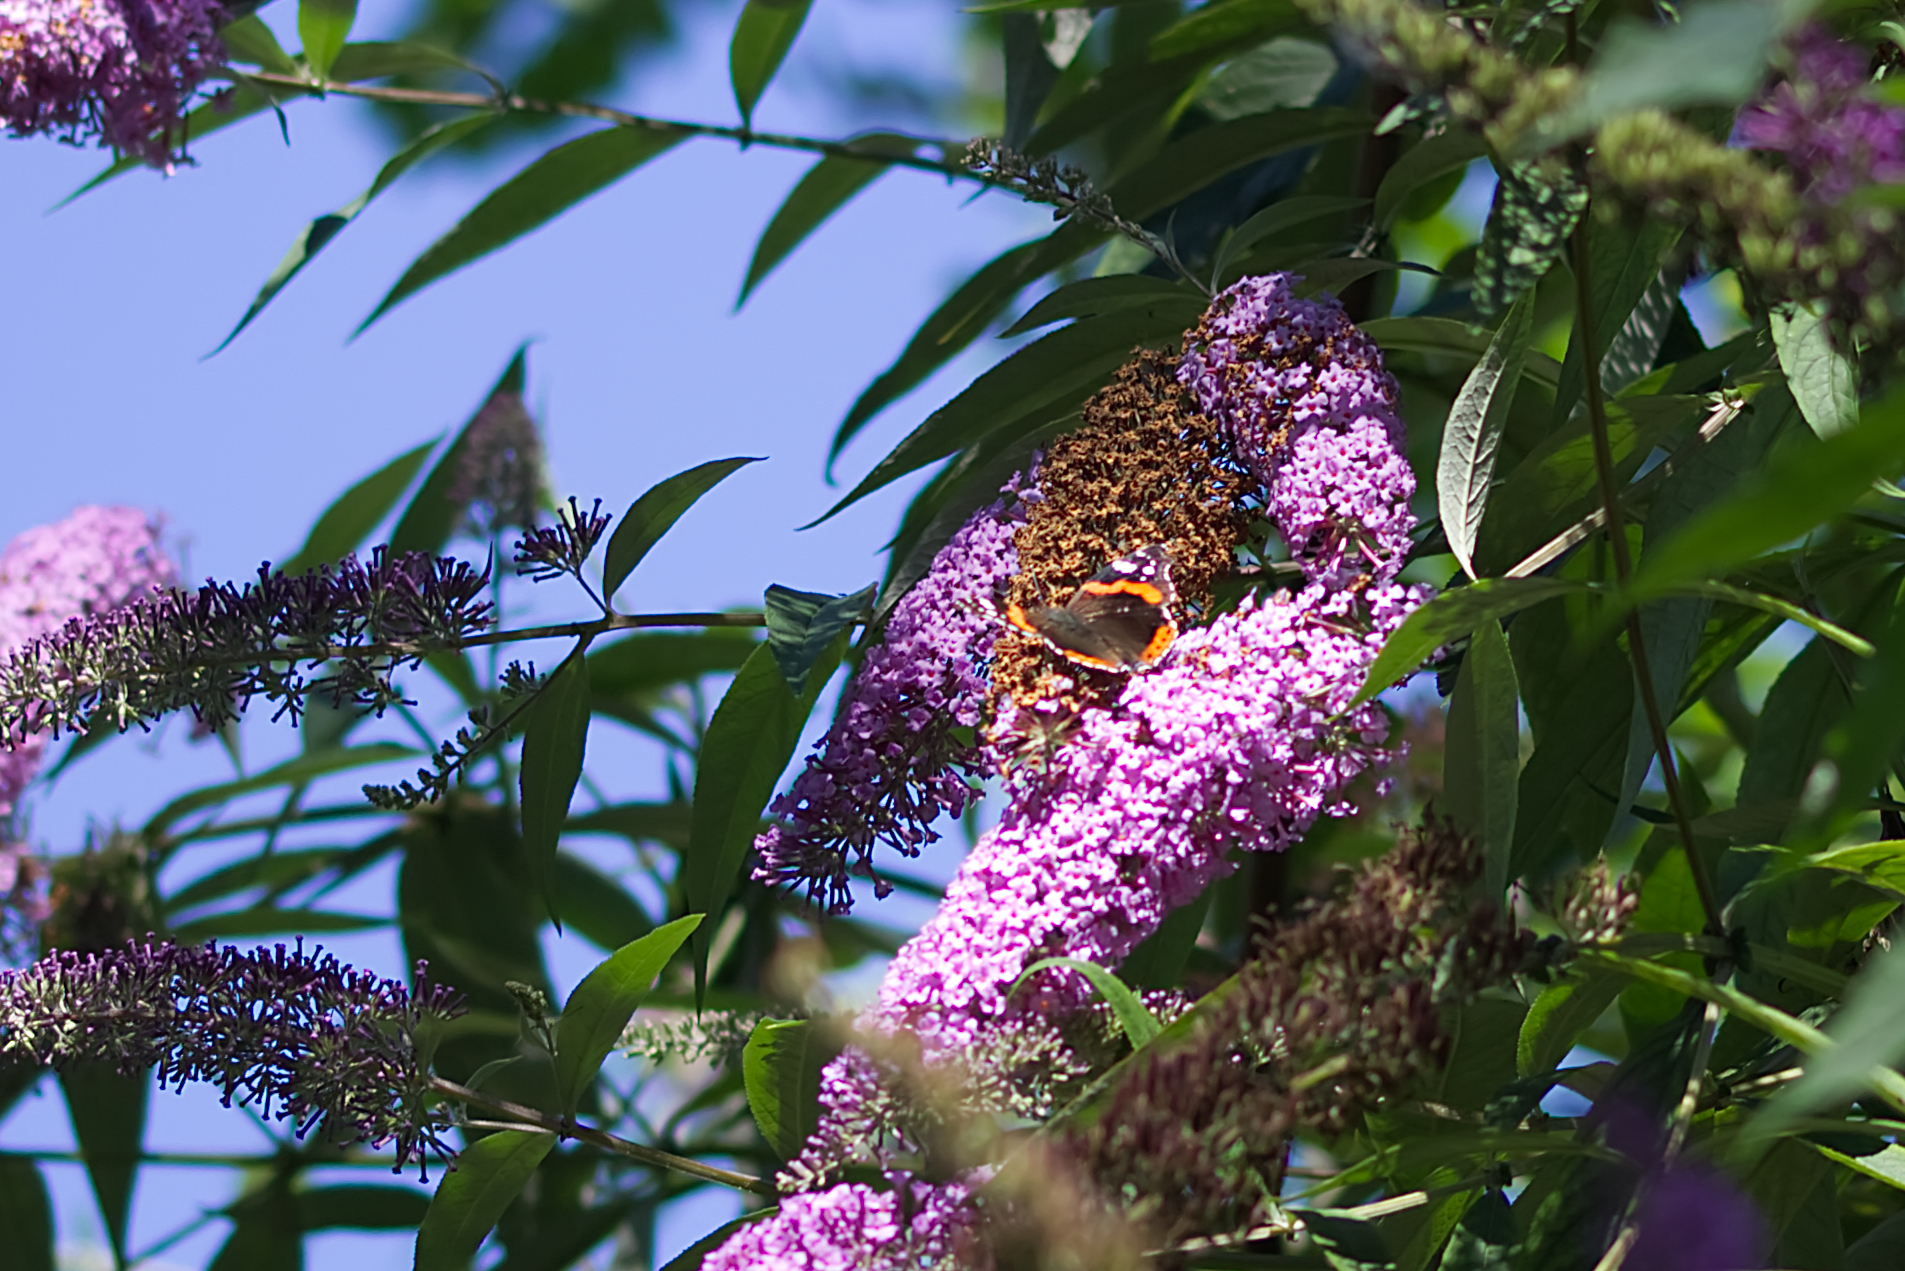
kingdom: Animalia
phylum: Arthropoda
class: Insecta
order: Lepidoptera
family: Nymphalidae
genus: Vanessa
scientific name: Vanessa atalanta
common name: Red admiral
